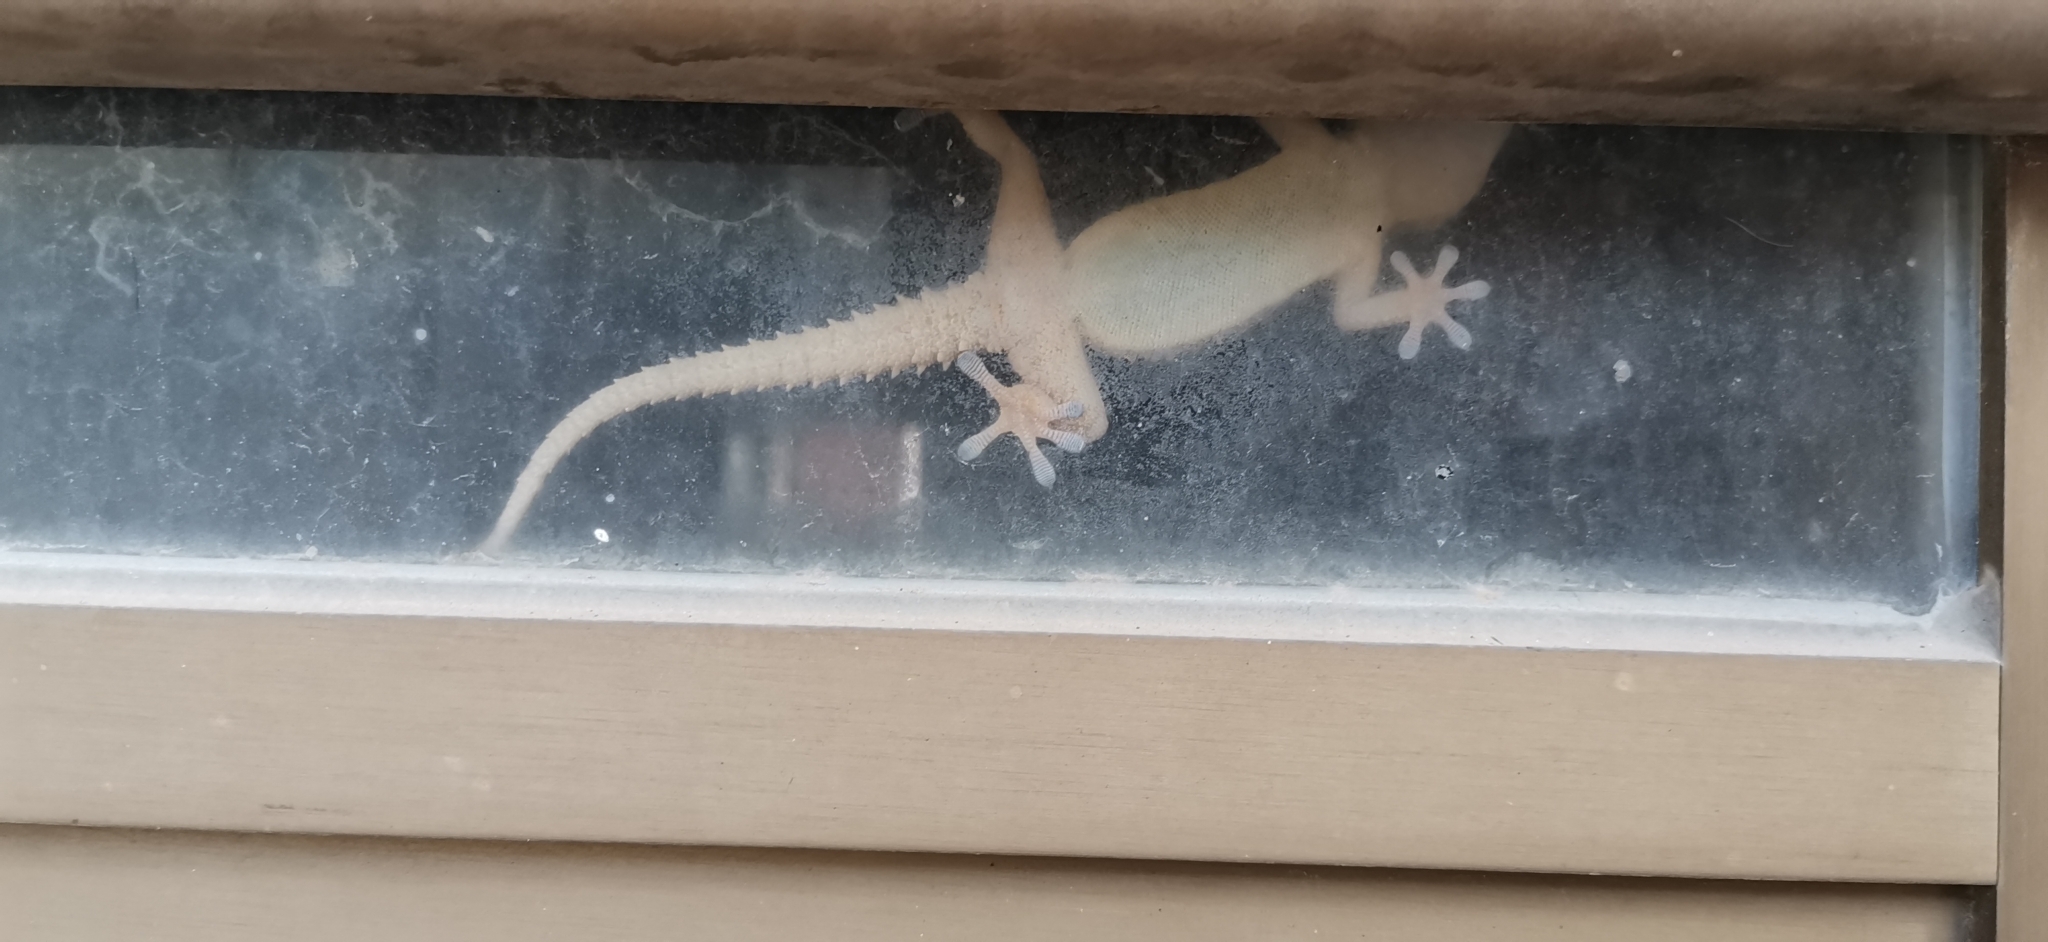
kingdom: Animalia
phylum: Chordata
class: Squamata
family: Phyllodactylidae
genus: Tarentola
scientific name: Tarentola mauritanica
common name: Moorish gecko
